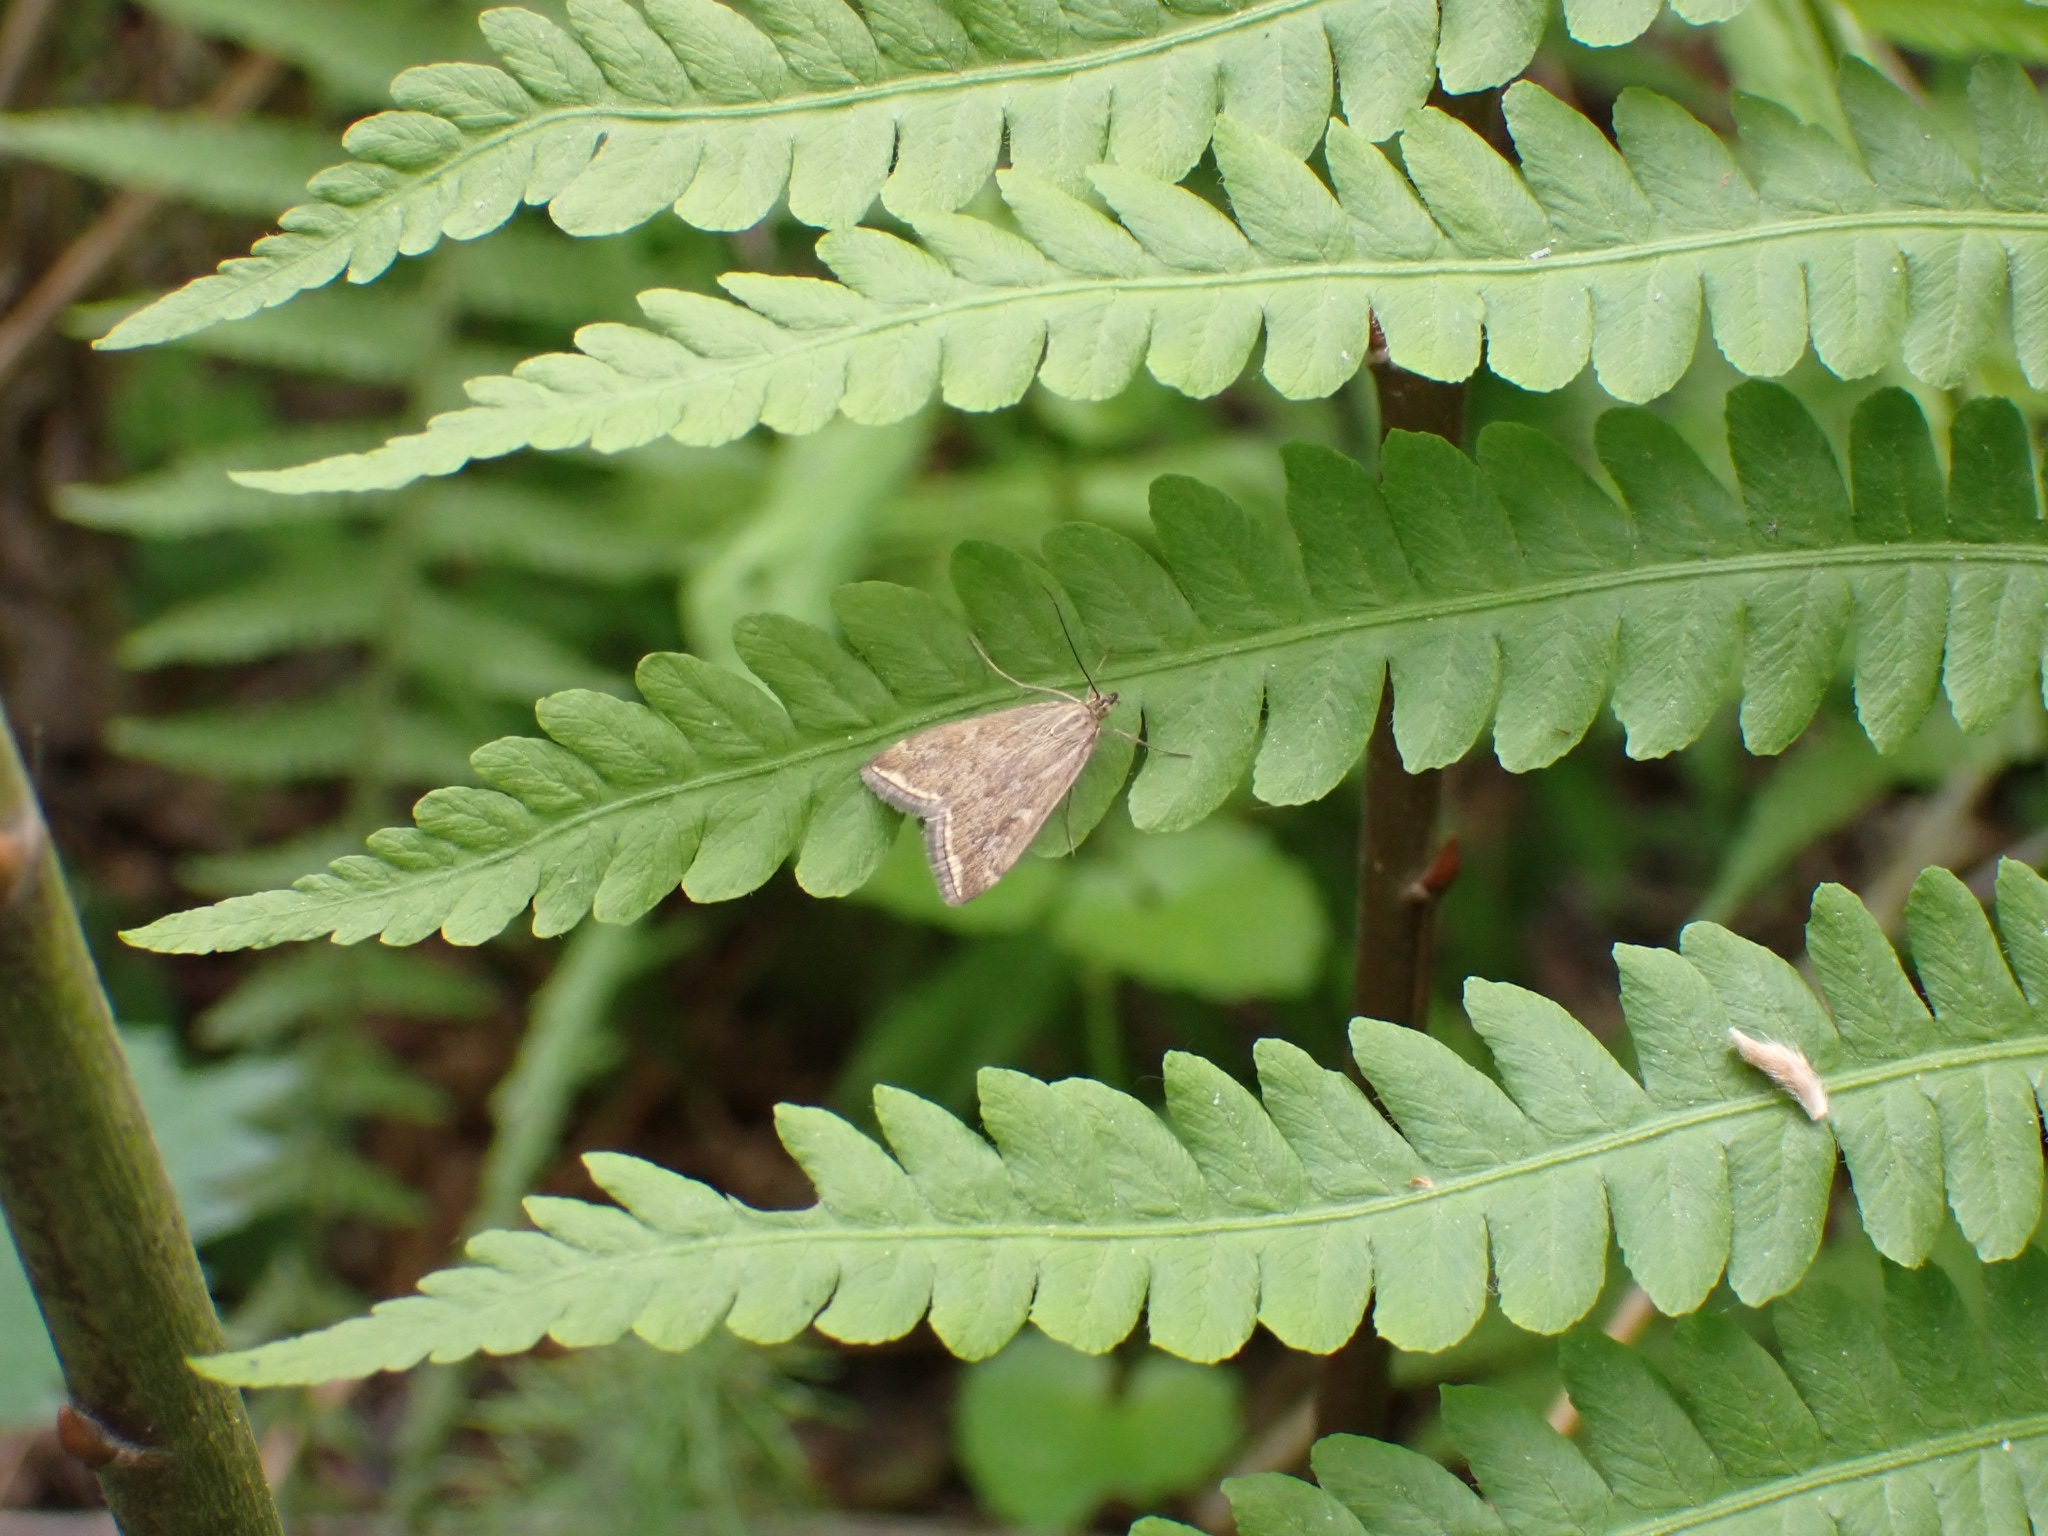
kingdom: Animalia
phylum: Arthropoda
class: Insecta
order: Lepidoptera
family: Crambidae
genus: Loxostege
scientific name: Loxostege sticticalis
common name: Crambid moth
